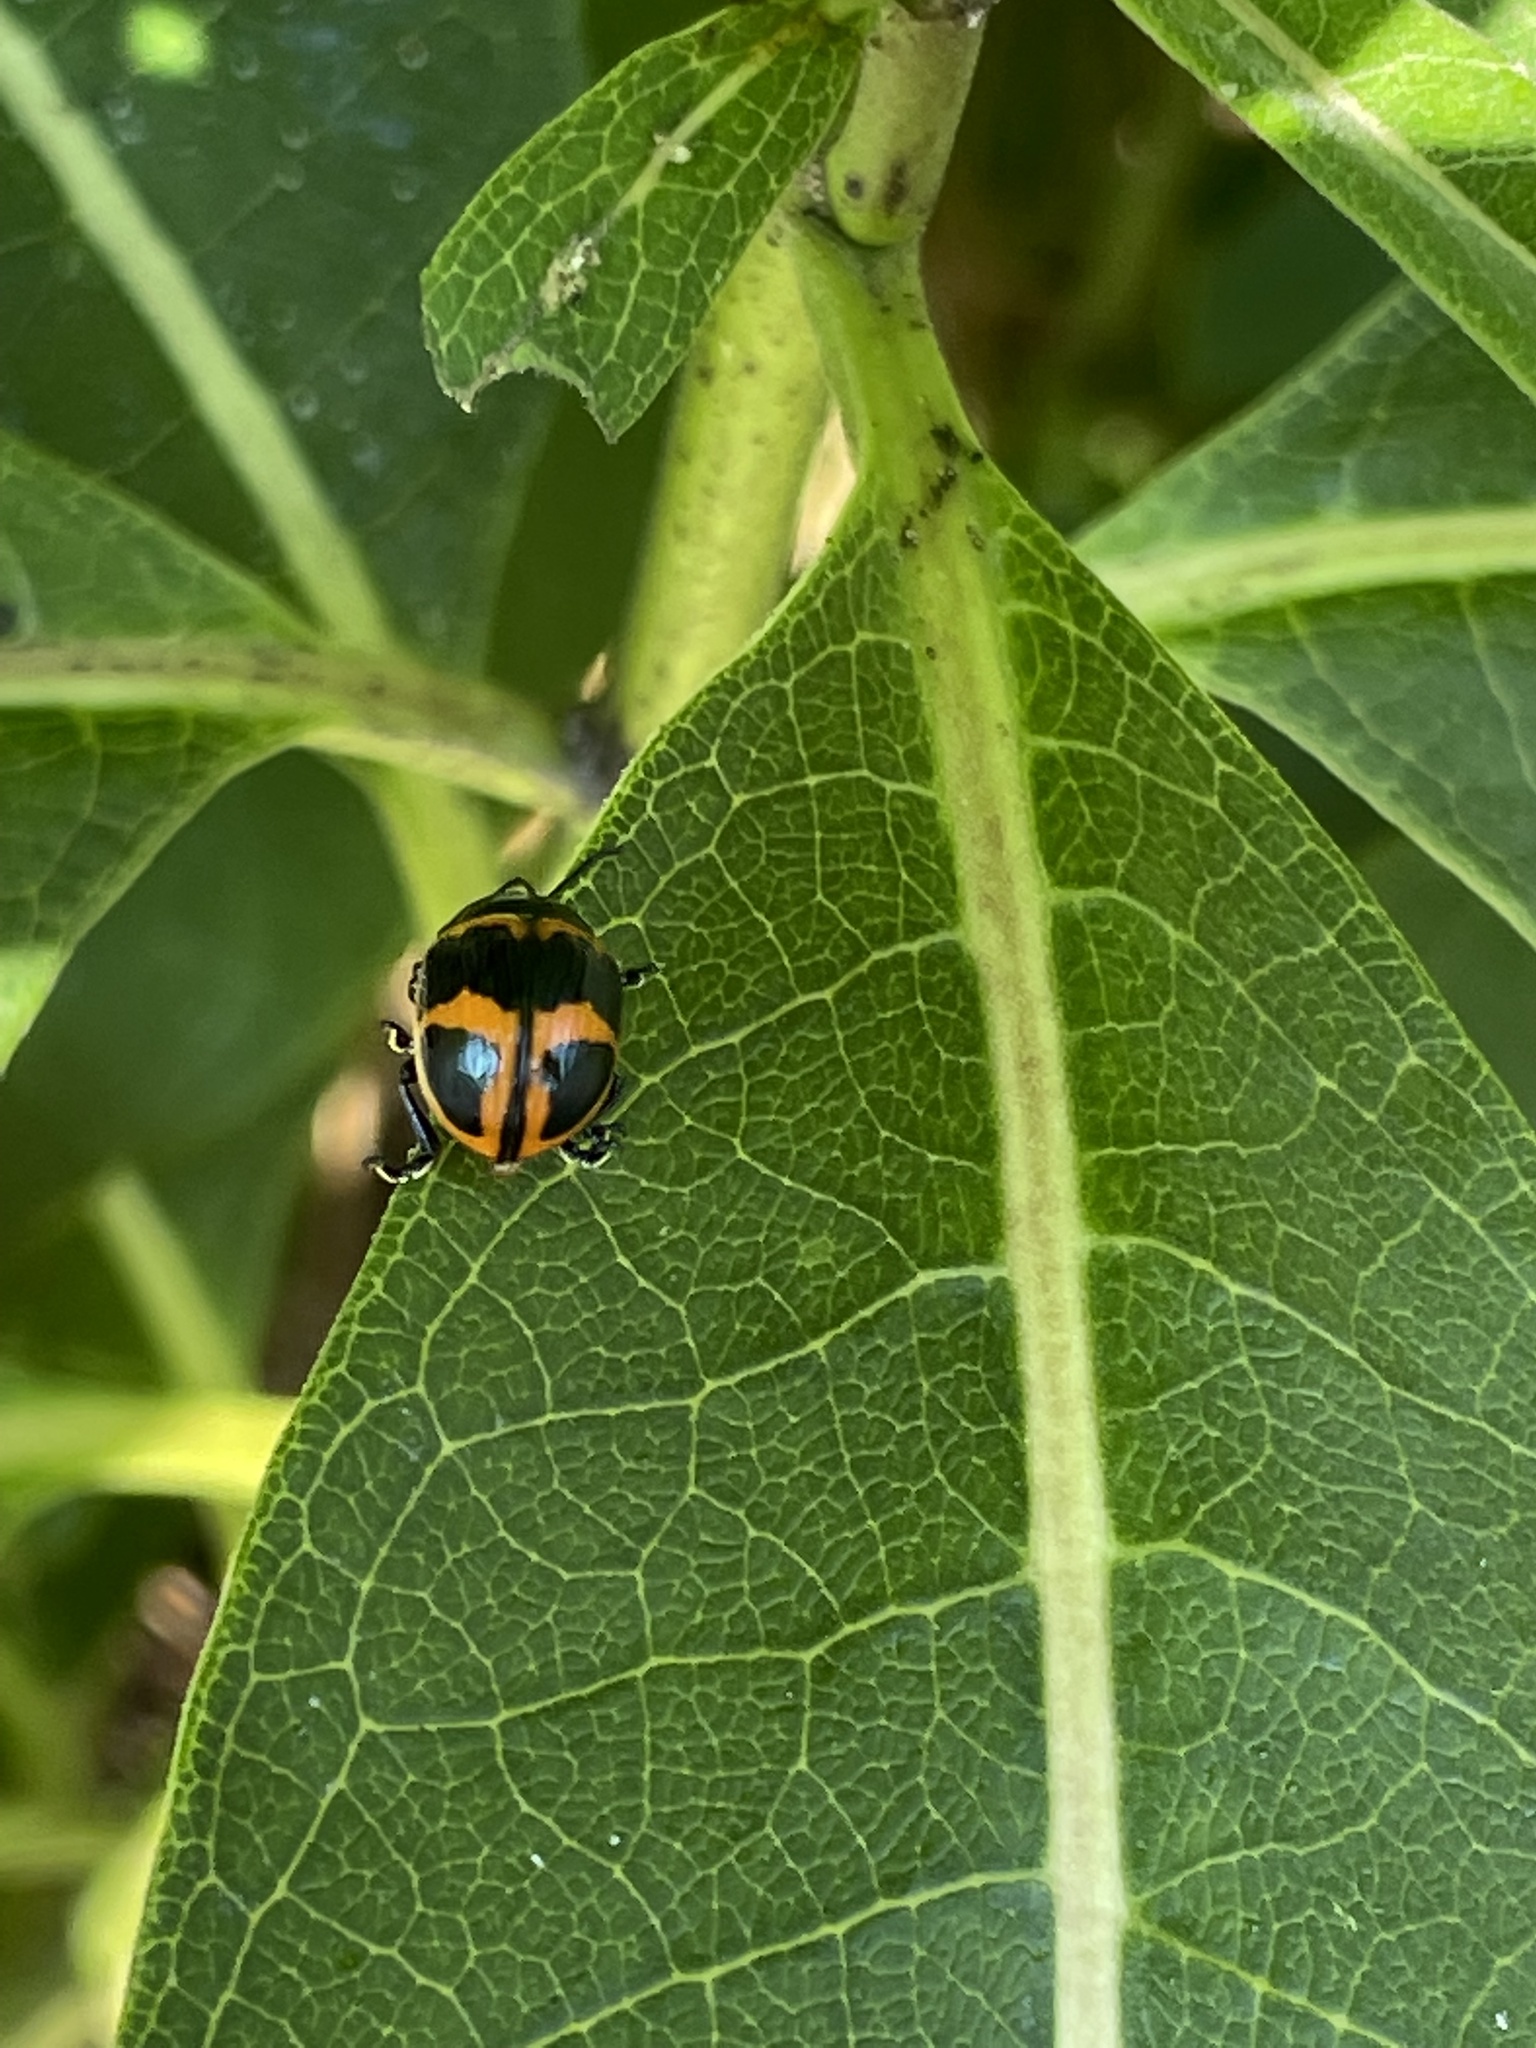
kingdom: Animalia
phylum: Arthropoda
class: Insecta
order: Coleoptera
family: Chrysomelidae
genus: Labidomera
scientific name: Labidomera clivicollis
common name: Swamp milkweed leaf beetle
